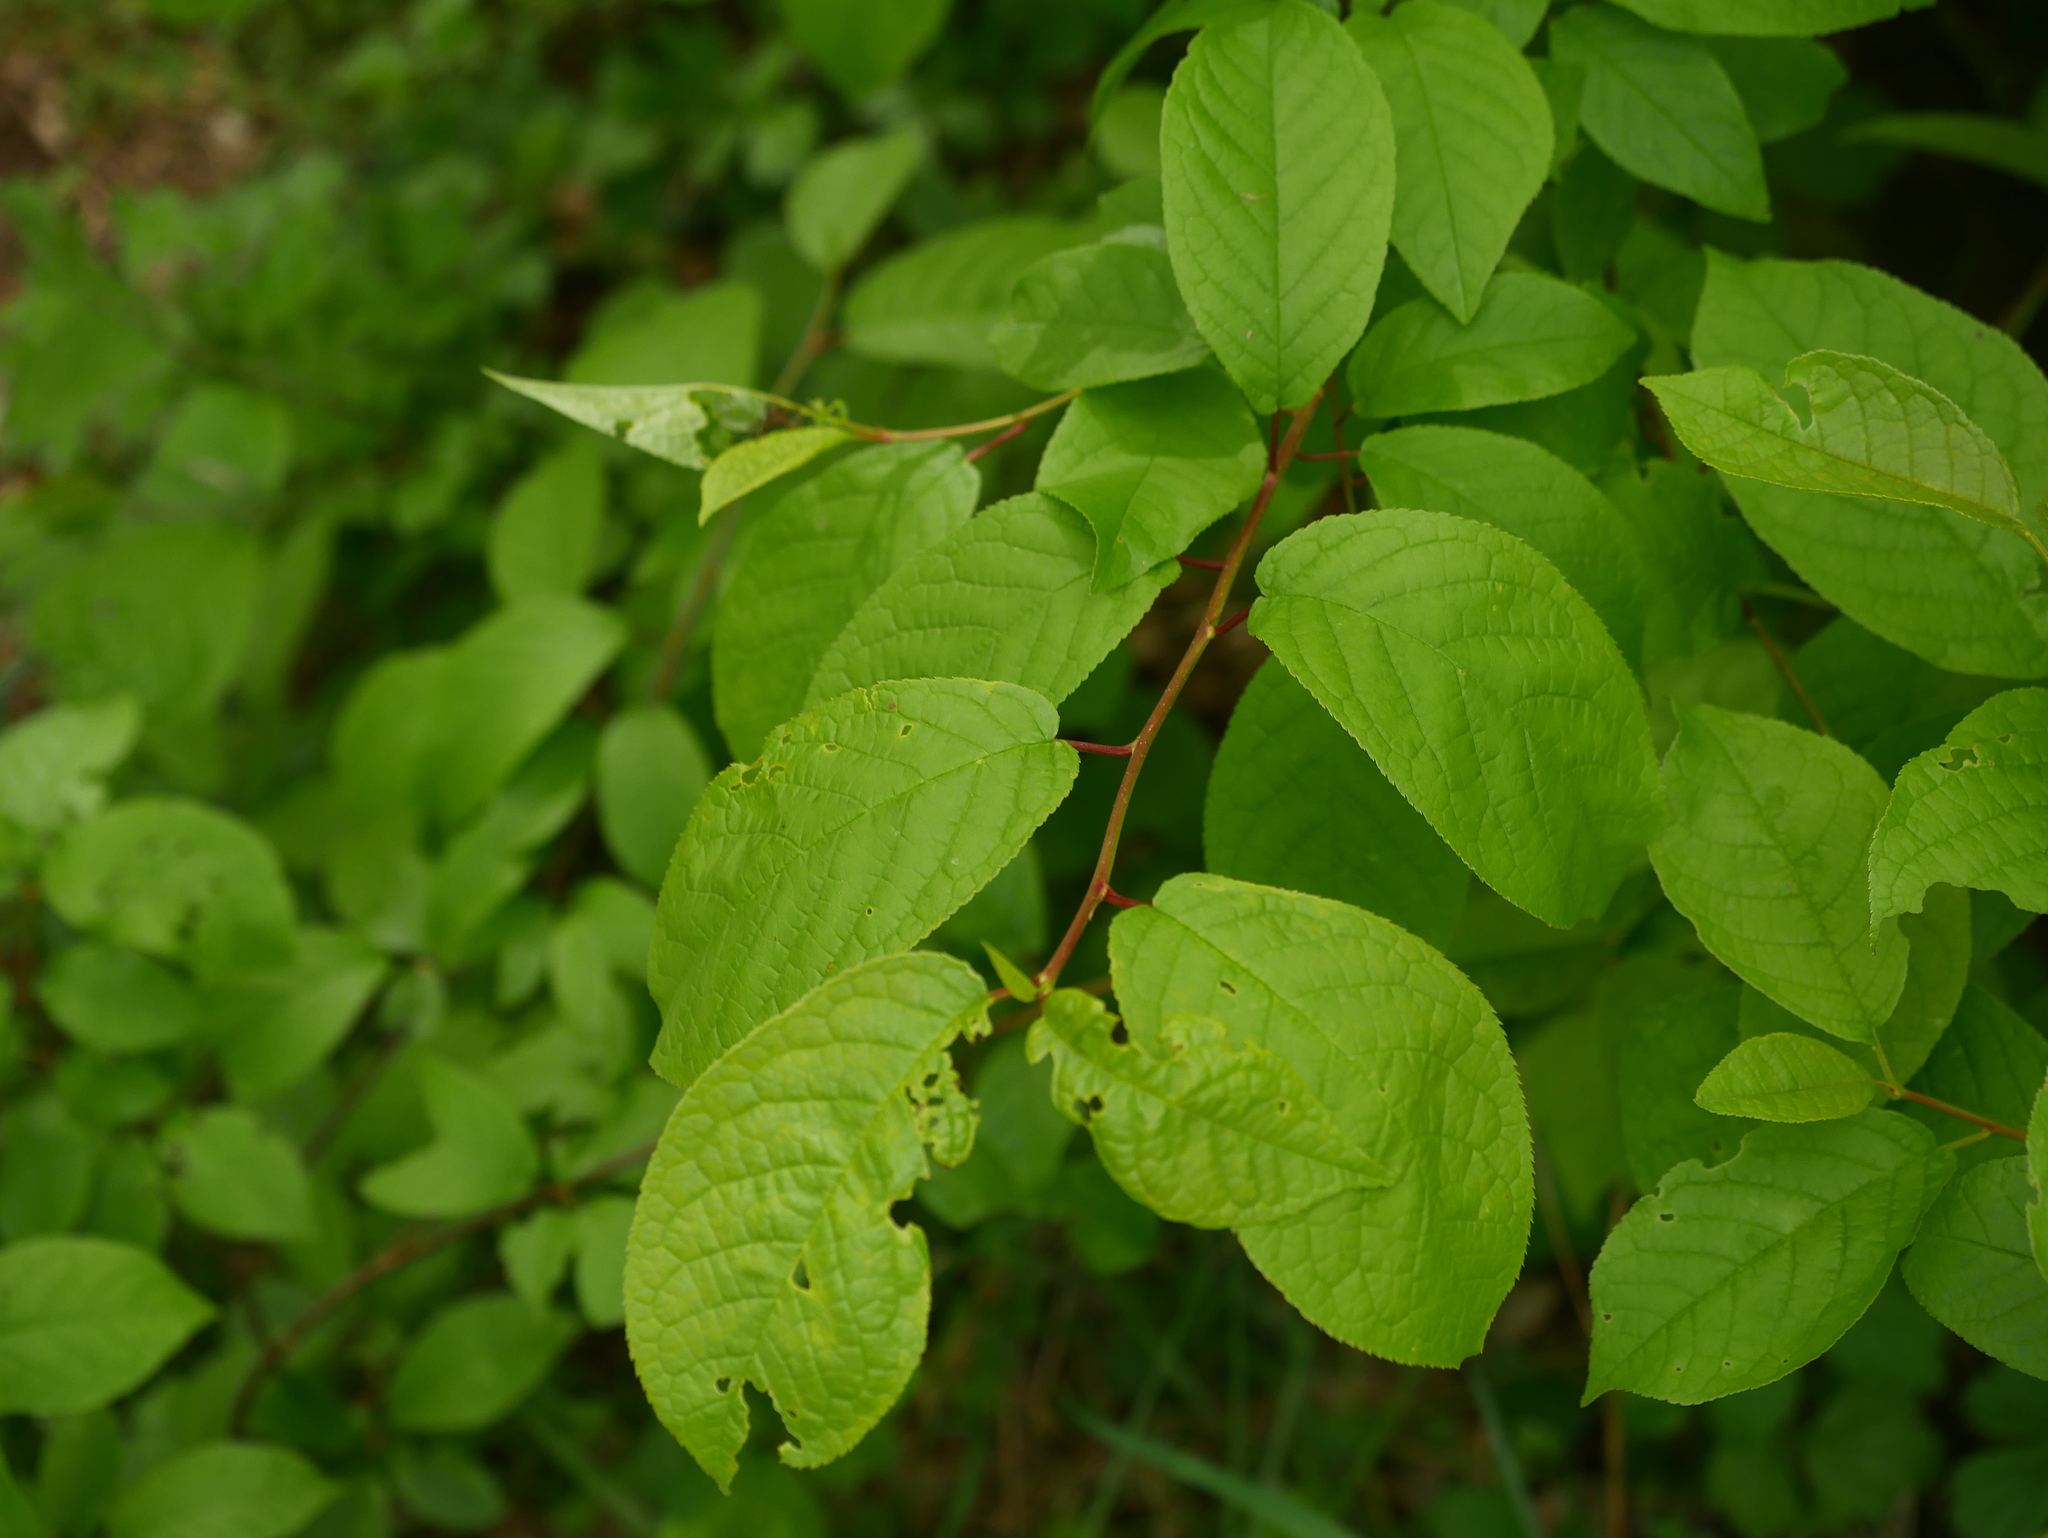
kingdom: Plantae
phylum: Tracheophyta
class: Magnoliopsida
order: Rosales
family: Rosaceae
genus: Prunus
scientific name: Prunus padus
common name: Bird cherry
